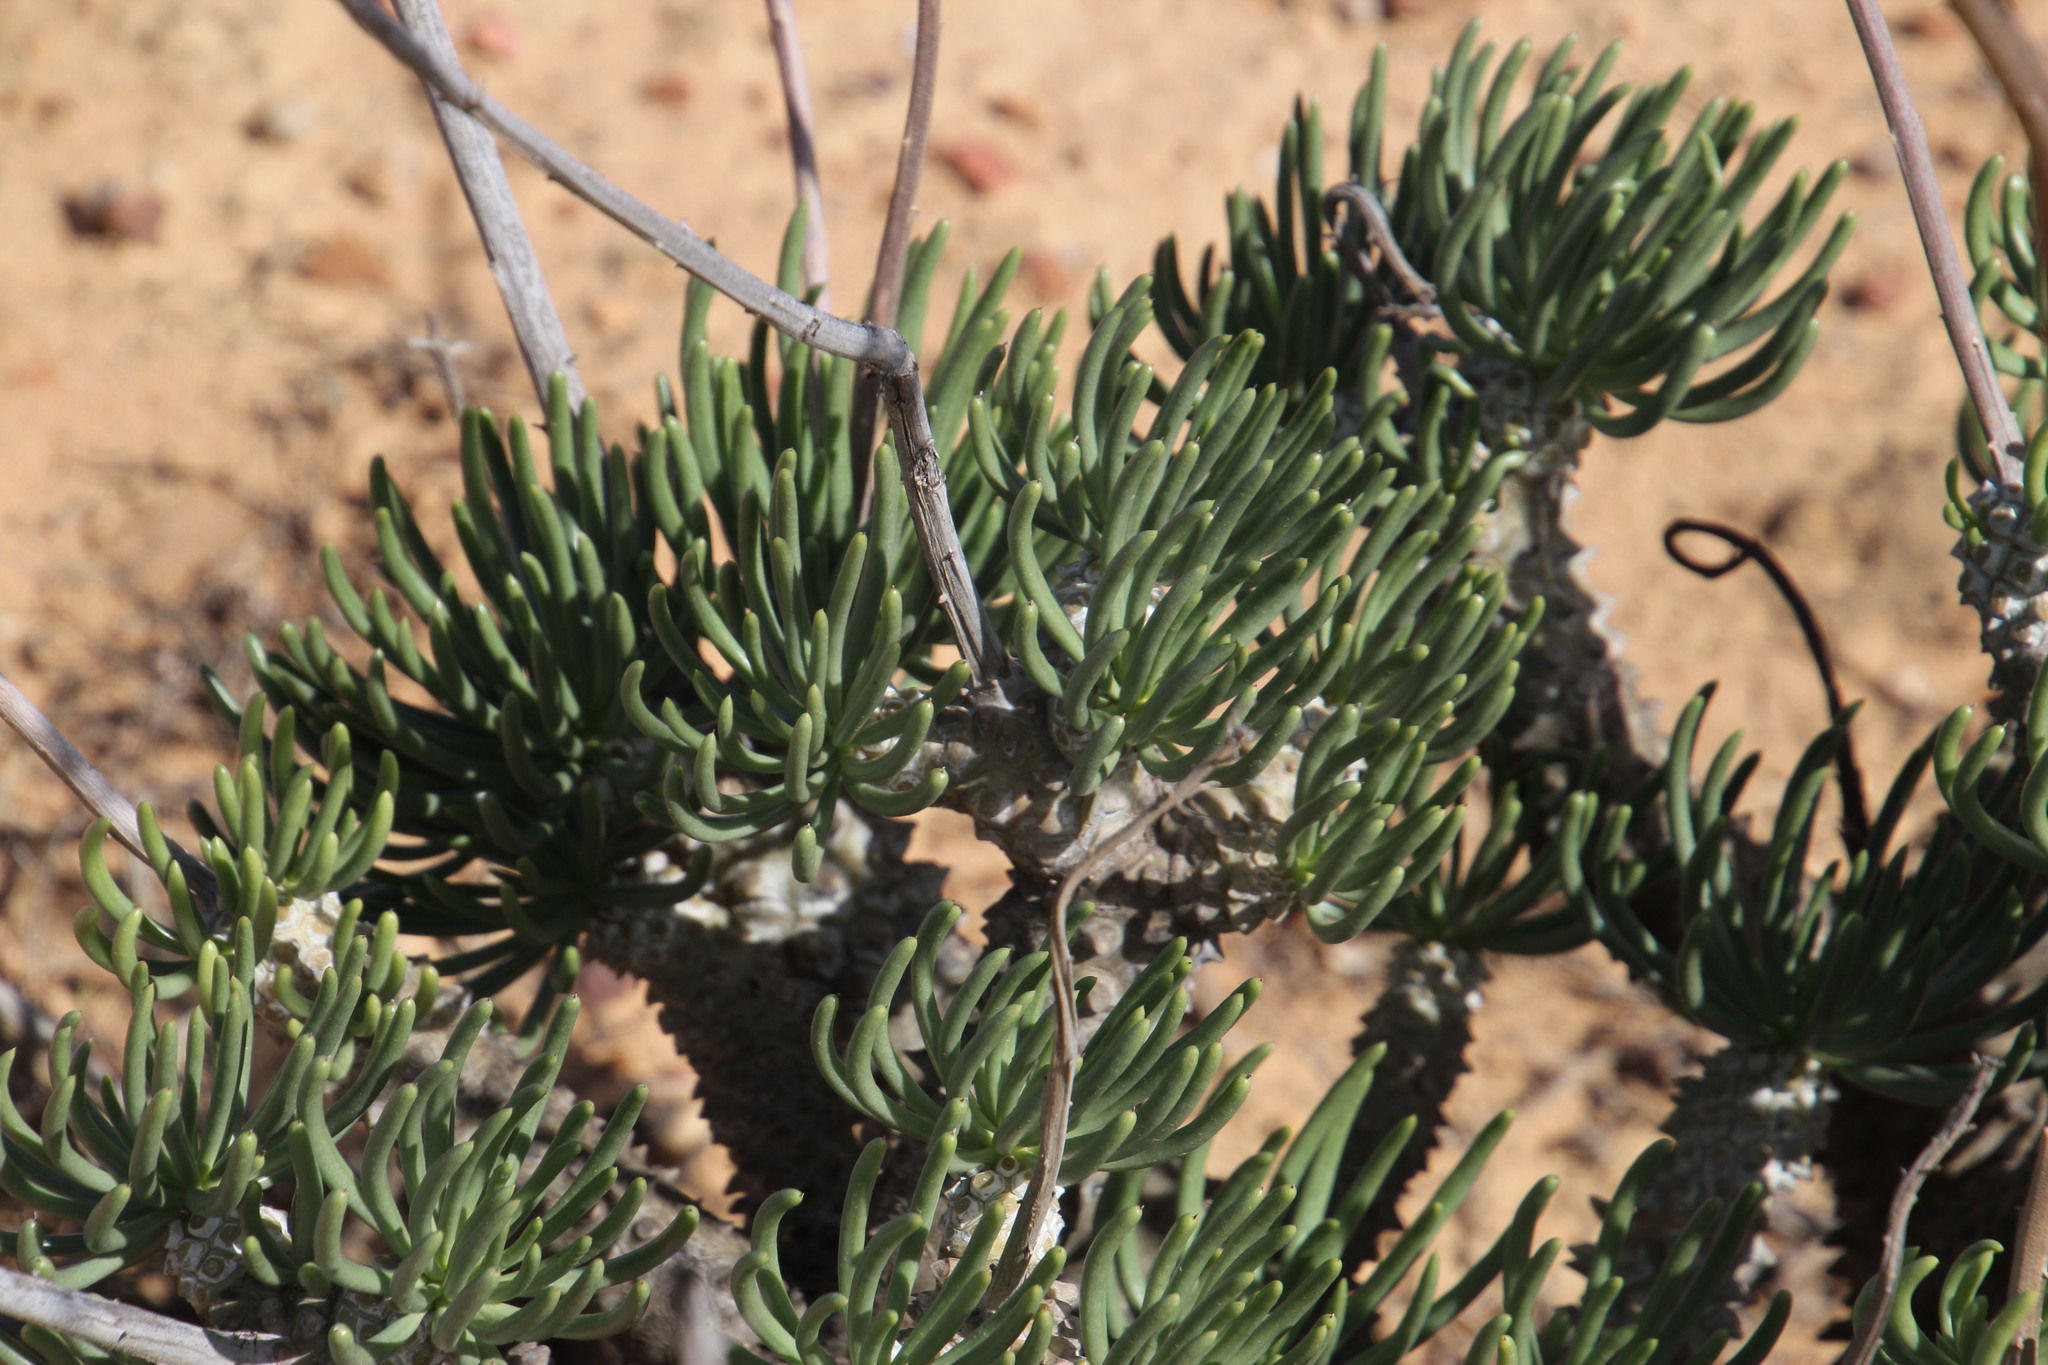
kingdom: Plantae
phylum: Tracheophyta
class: Magnoliopsida
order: Saxifragales
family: Crassulaceae
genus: Tylecodon
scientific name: Tylecodon wallichii
